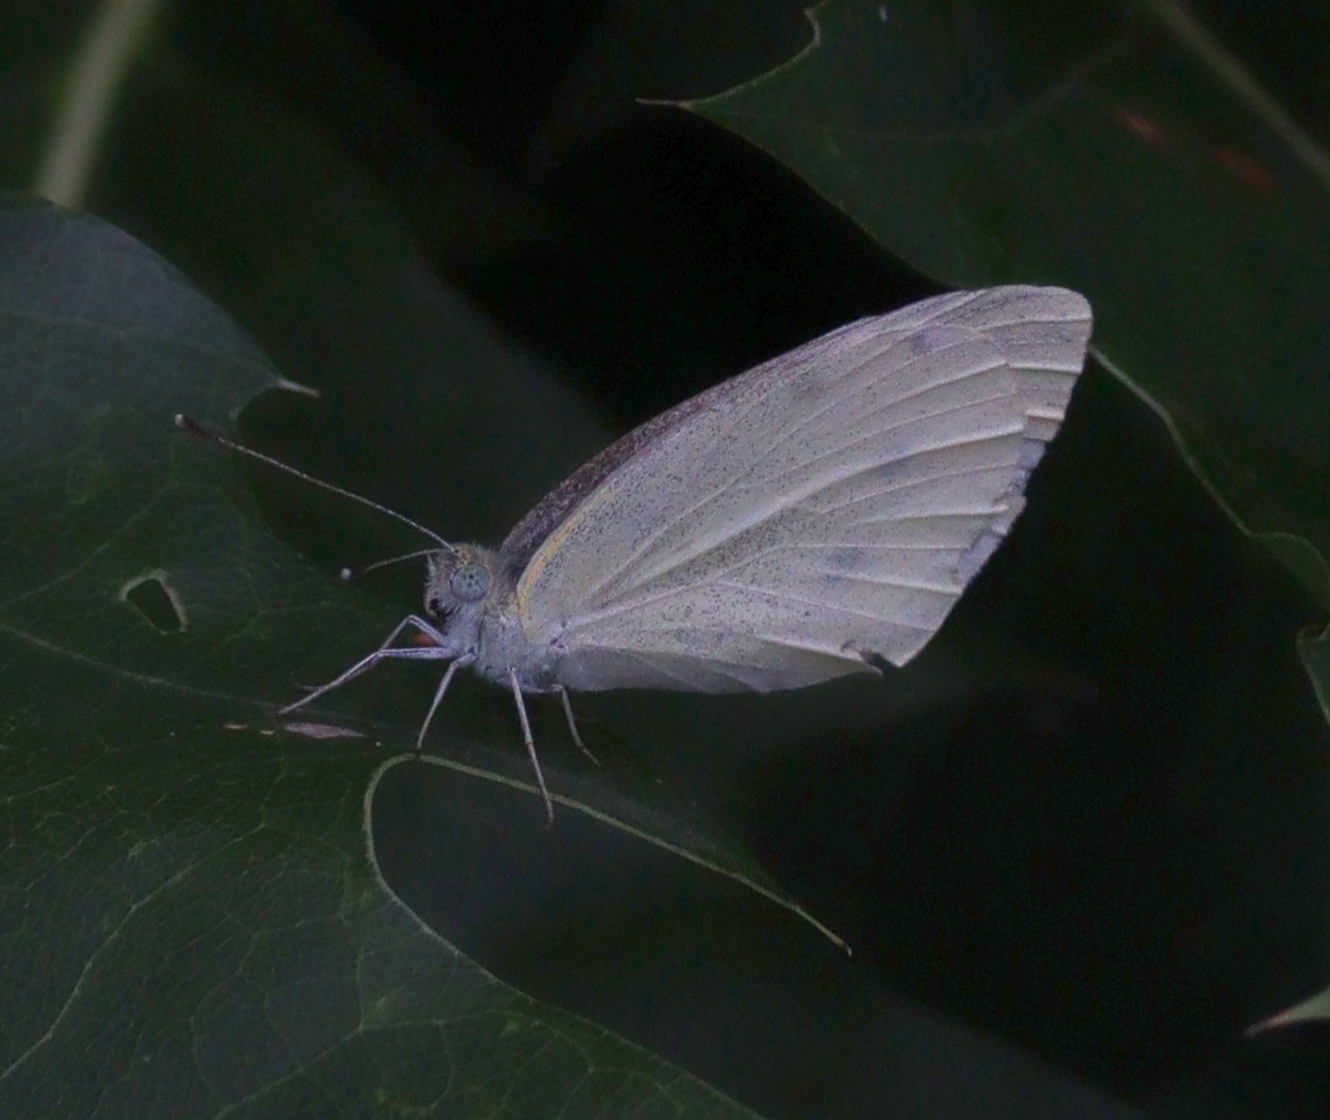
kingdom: Animalia
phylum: Arthropoda
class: Insecta
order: Lepidoptera
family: Pieridae
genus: Pieris
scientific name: Pieris rapae
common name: Small white
